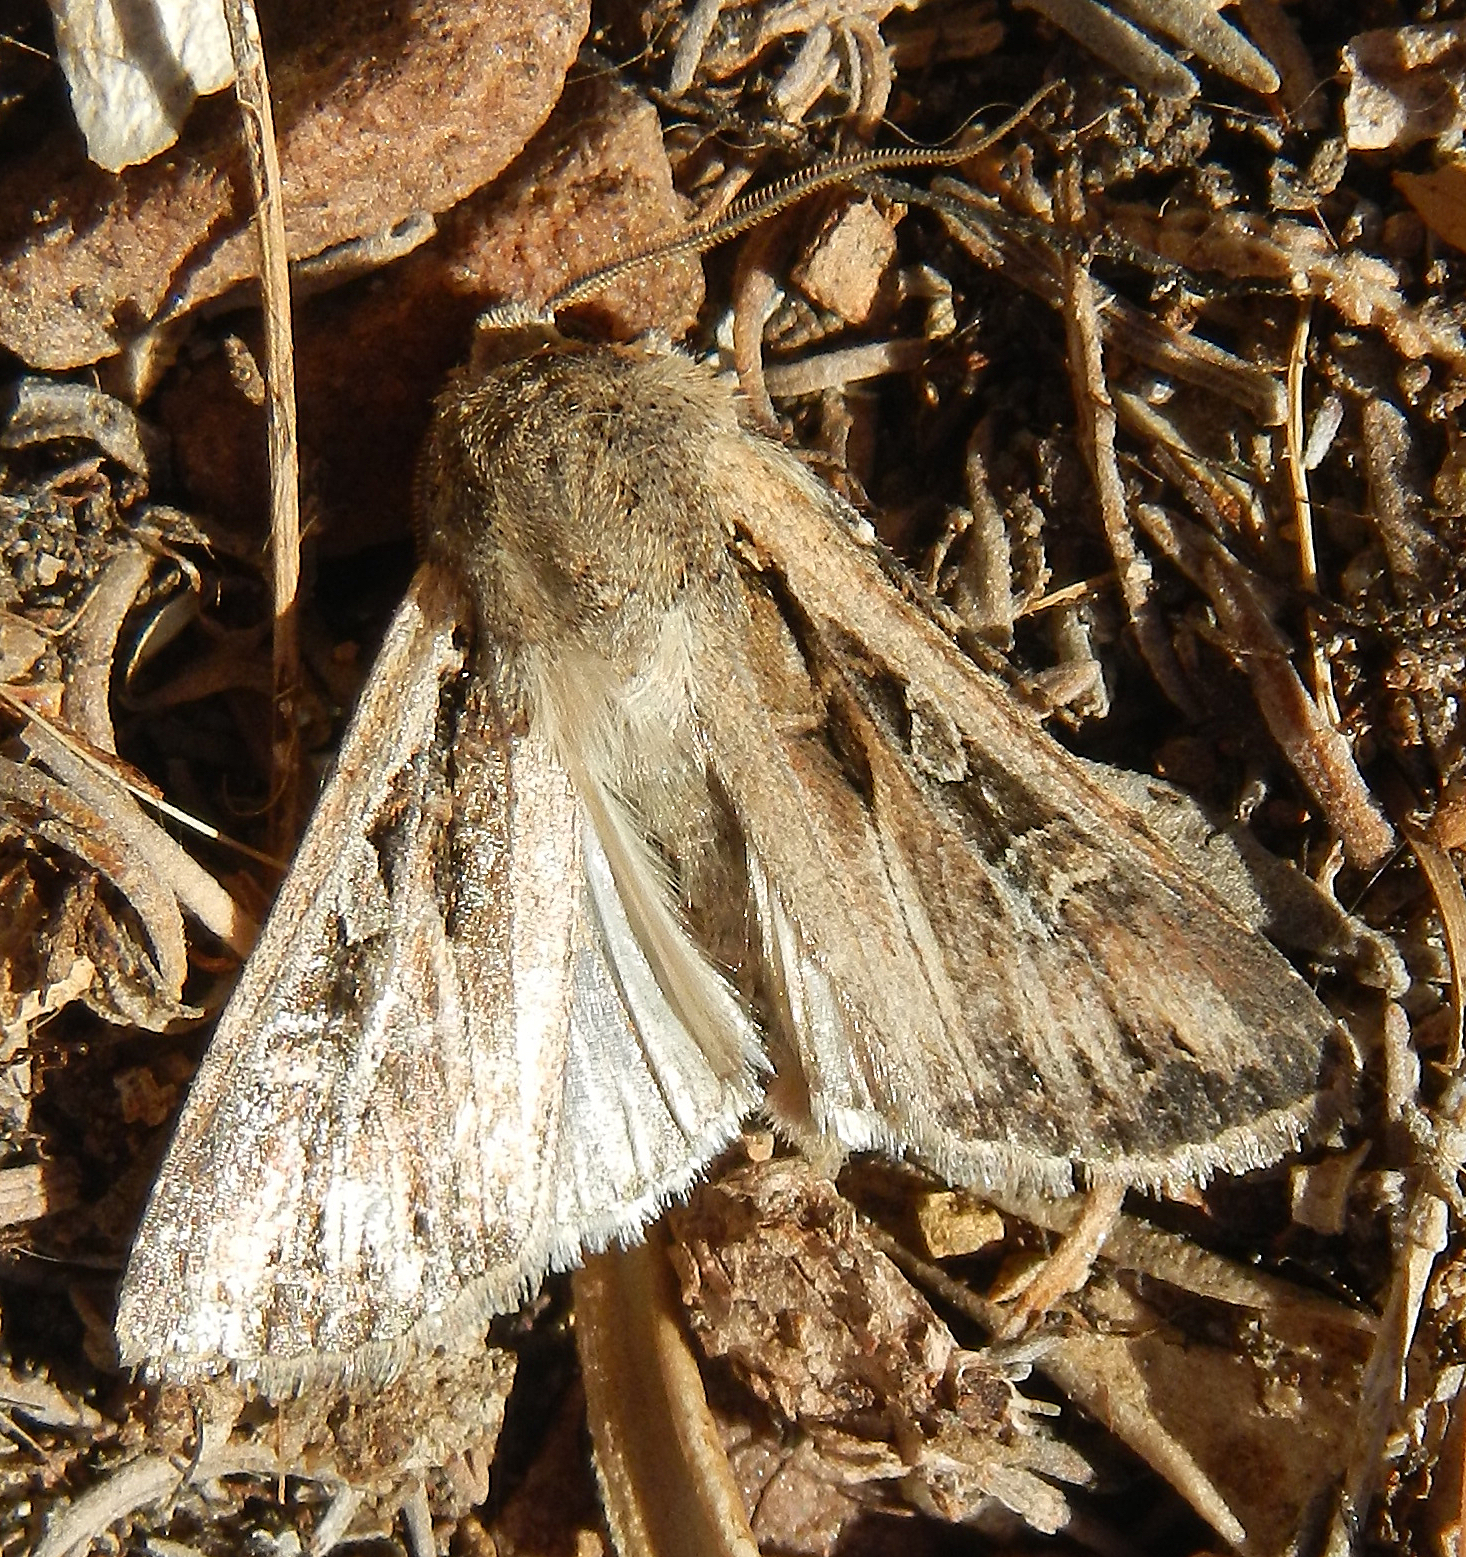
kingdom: Animalia
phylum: Arthropoda
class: Insecta
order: Lepidoptera
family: Noctuidae
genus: Euxoa
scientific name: Euxoa olivalis
